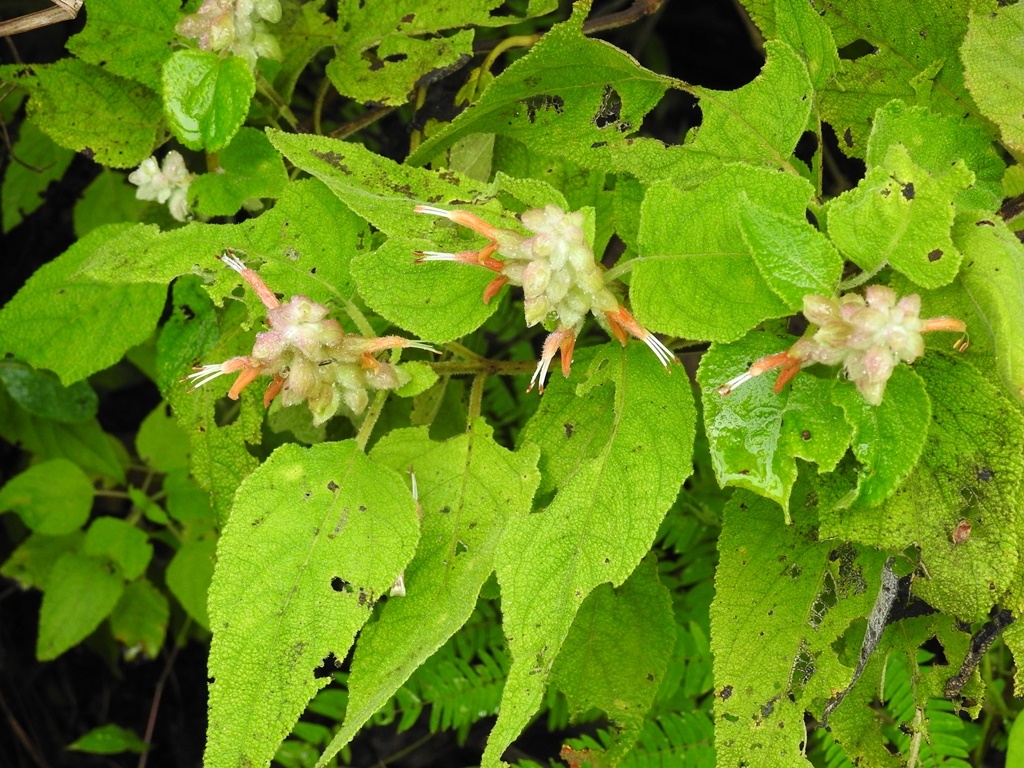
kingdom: Plantae
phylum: Tracheophyta
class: Magnoliopsida
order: Lamiales
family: Lamiaceae
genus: Salvia
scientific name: Salvia lasiantha
